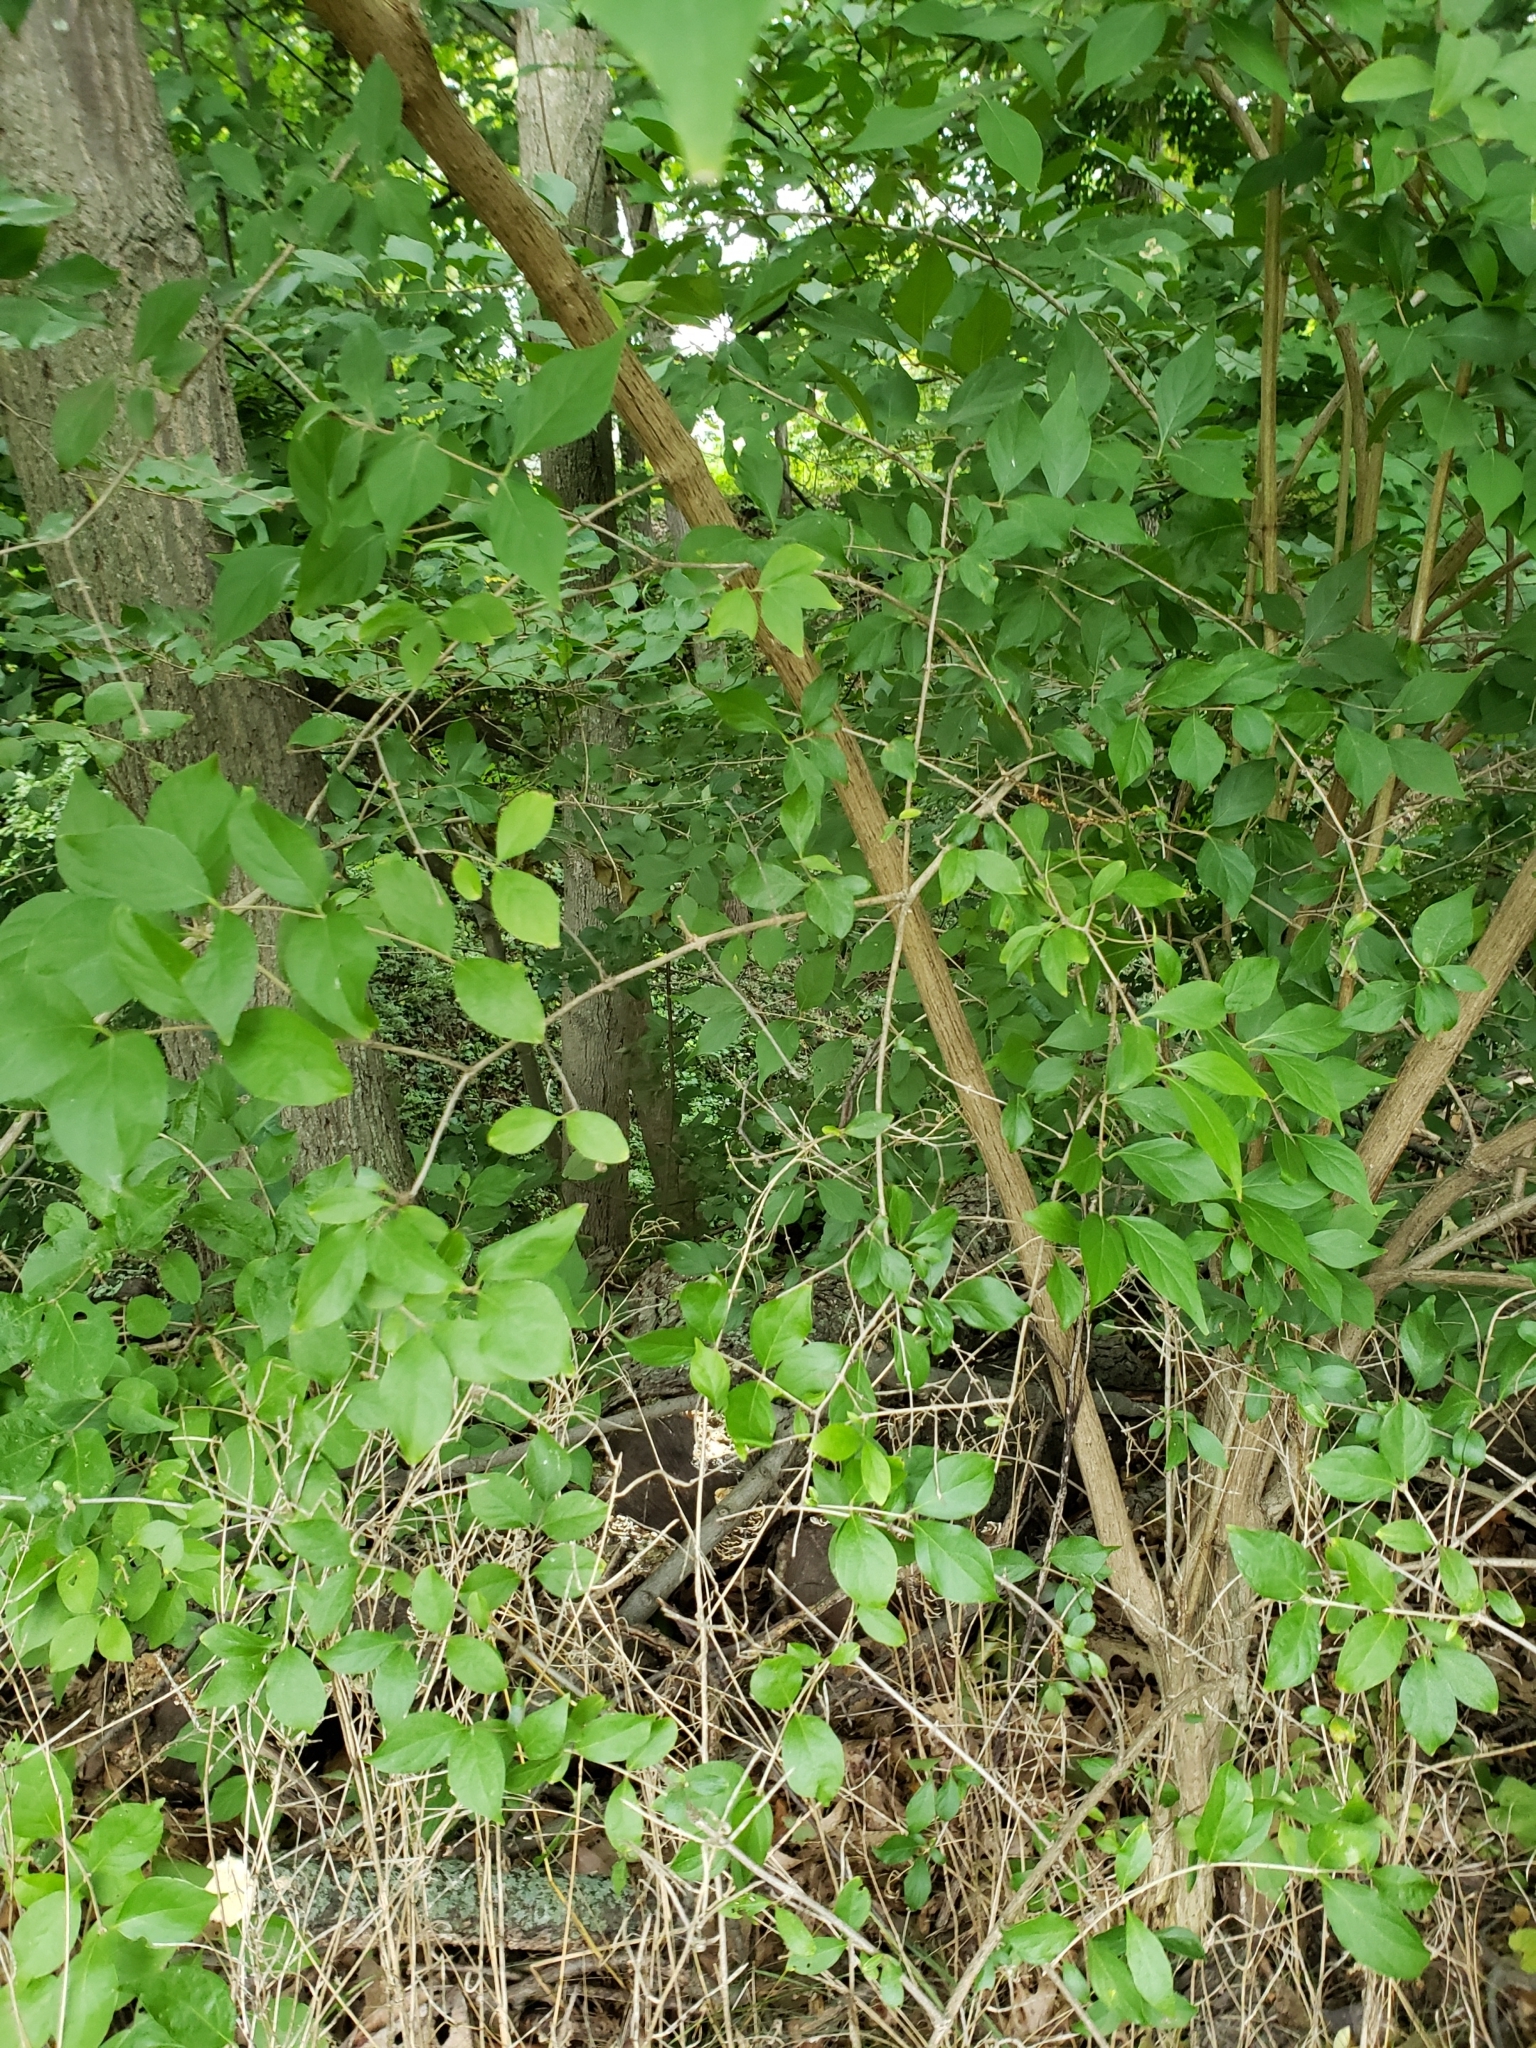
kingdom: Plantae
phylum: Tracheophyta
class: Magnoliopsida
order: Dipsacales
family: Caprifoliaceae
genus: Lonicera
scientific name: Lonicera maackii
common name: Amur honeysuckle
